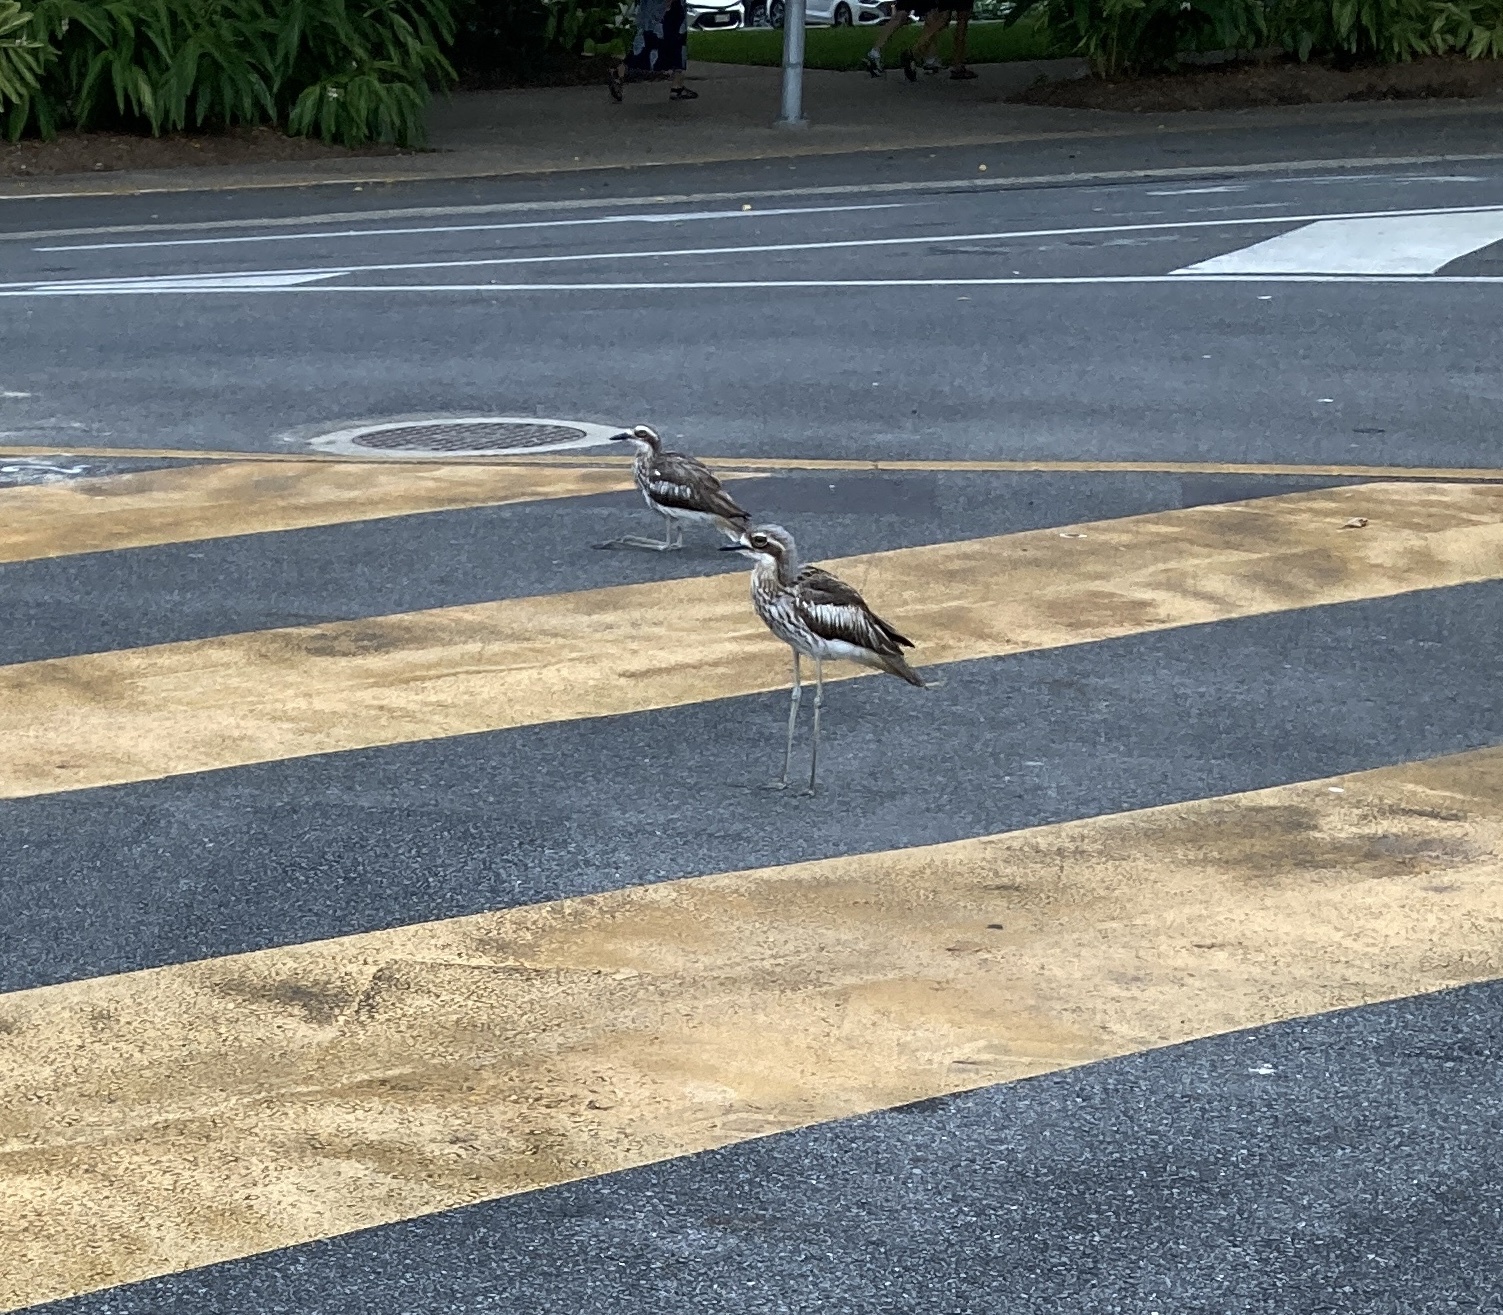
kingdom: Animalia
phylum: Chordata
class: Aves
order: Charadriiformes
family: Burhinidae
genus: Burhinus
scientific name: Burhinus grallarius
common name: Bush stone-curlew
